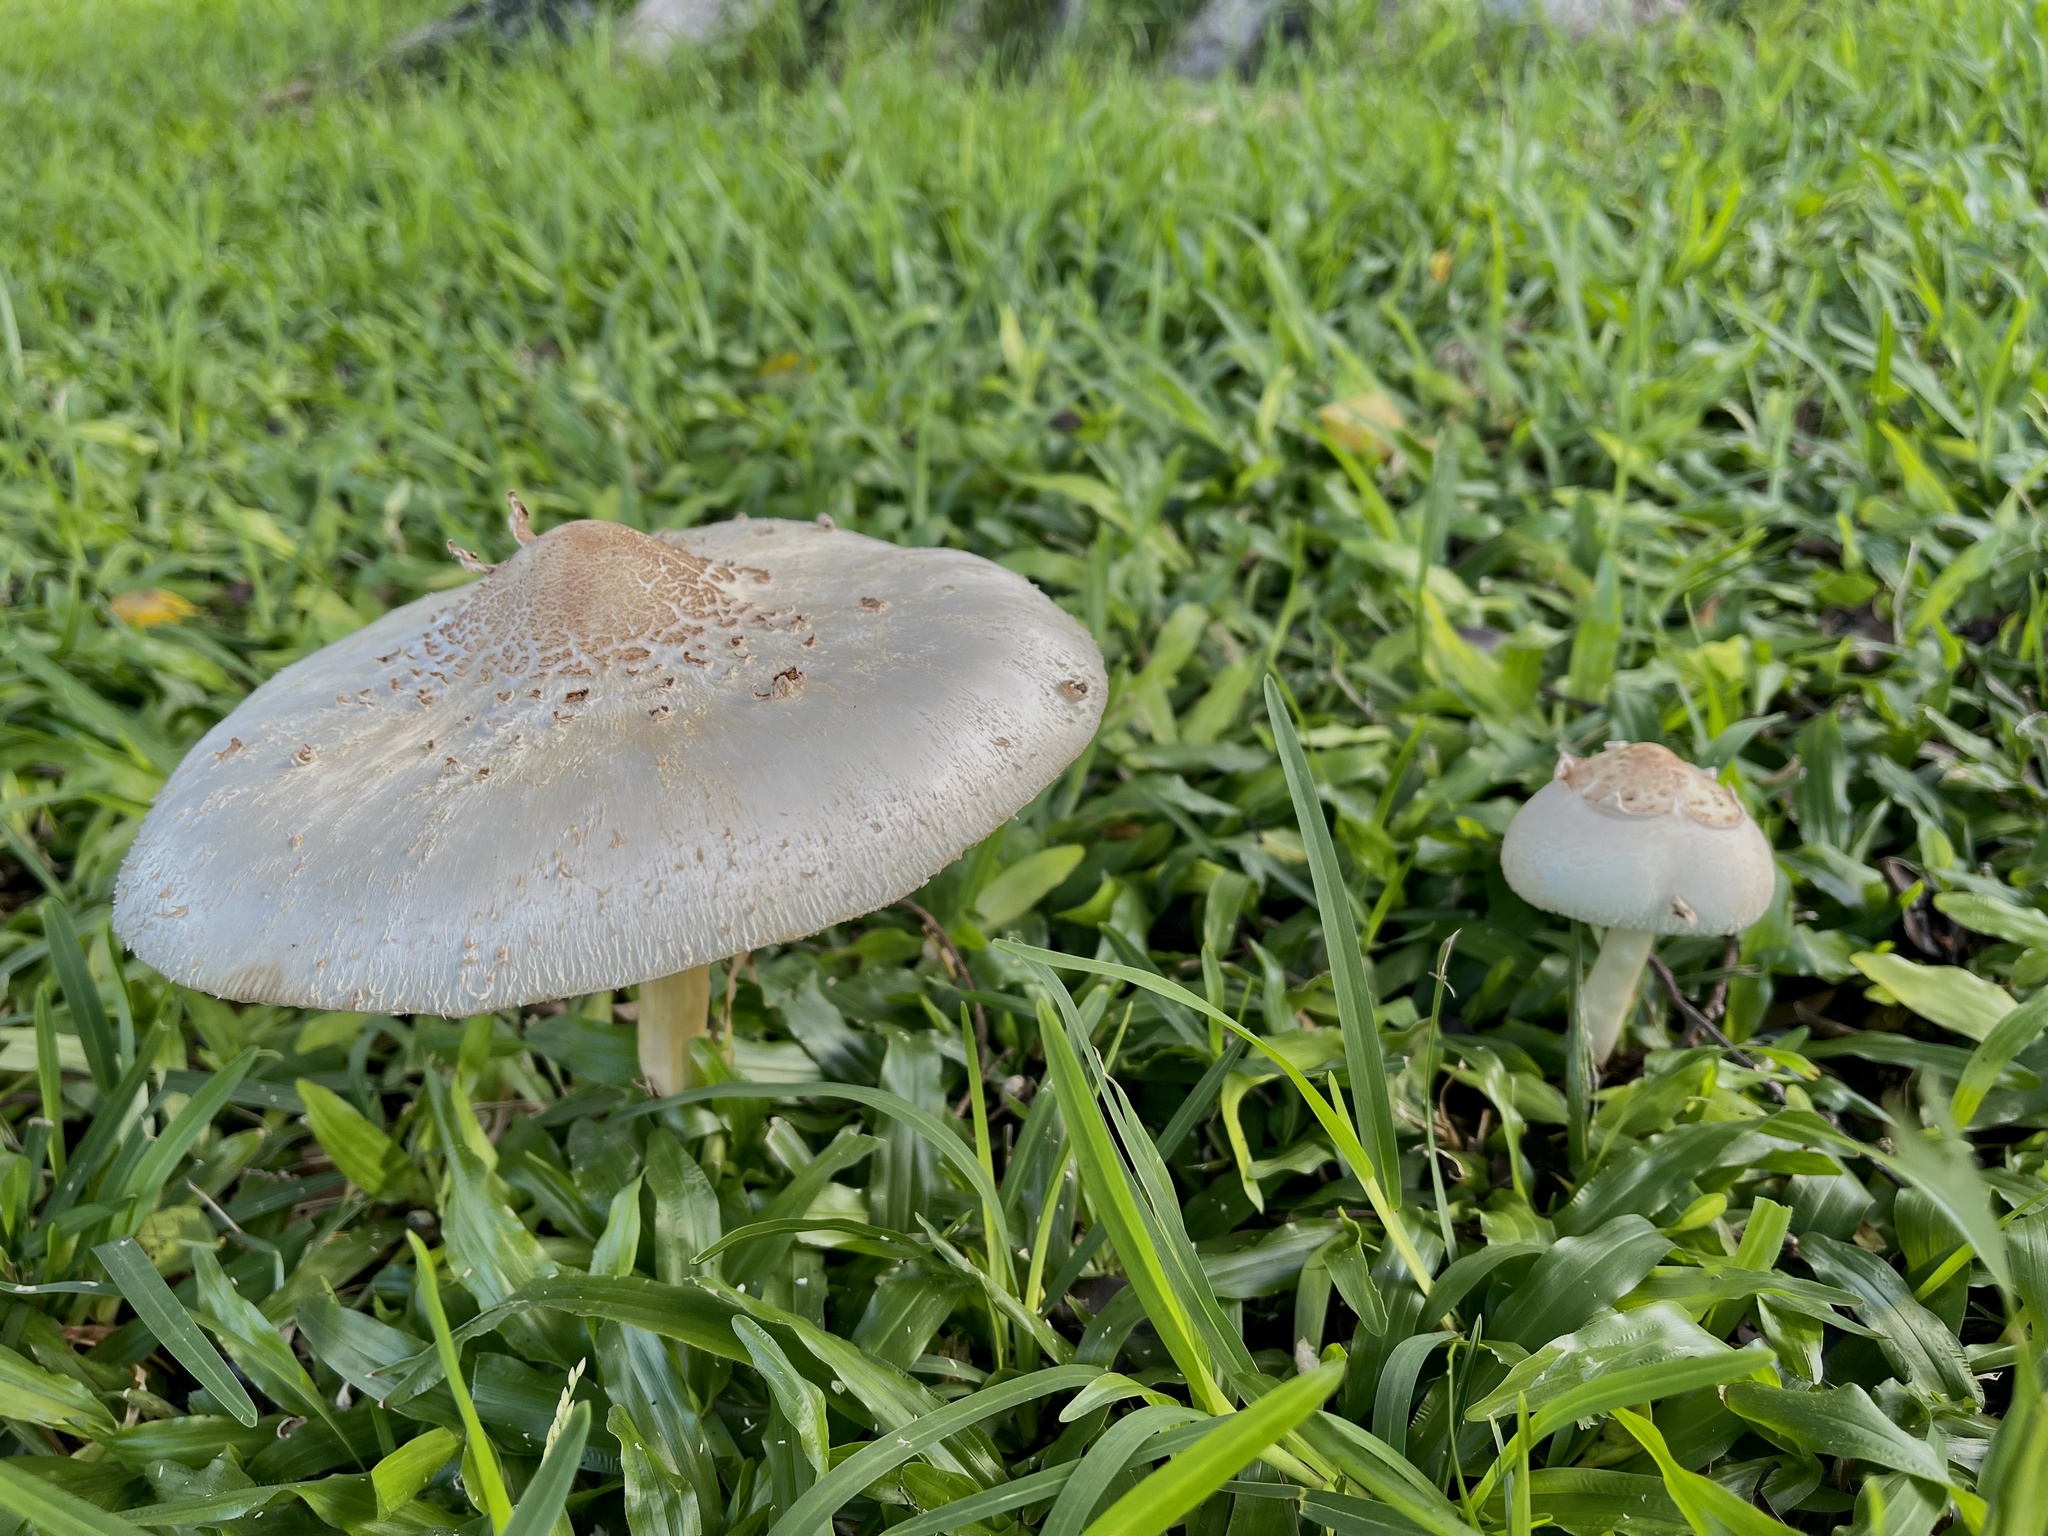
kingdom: Fungi
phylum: Basidiomycota
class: Agaricomycetes
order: Agaricales
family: Agaricaceae
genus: Chlorophyllum
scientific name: Chlorophyllum molybdites
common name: False parasol
